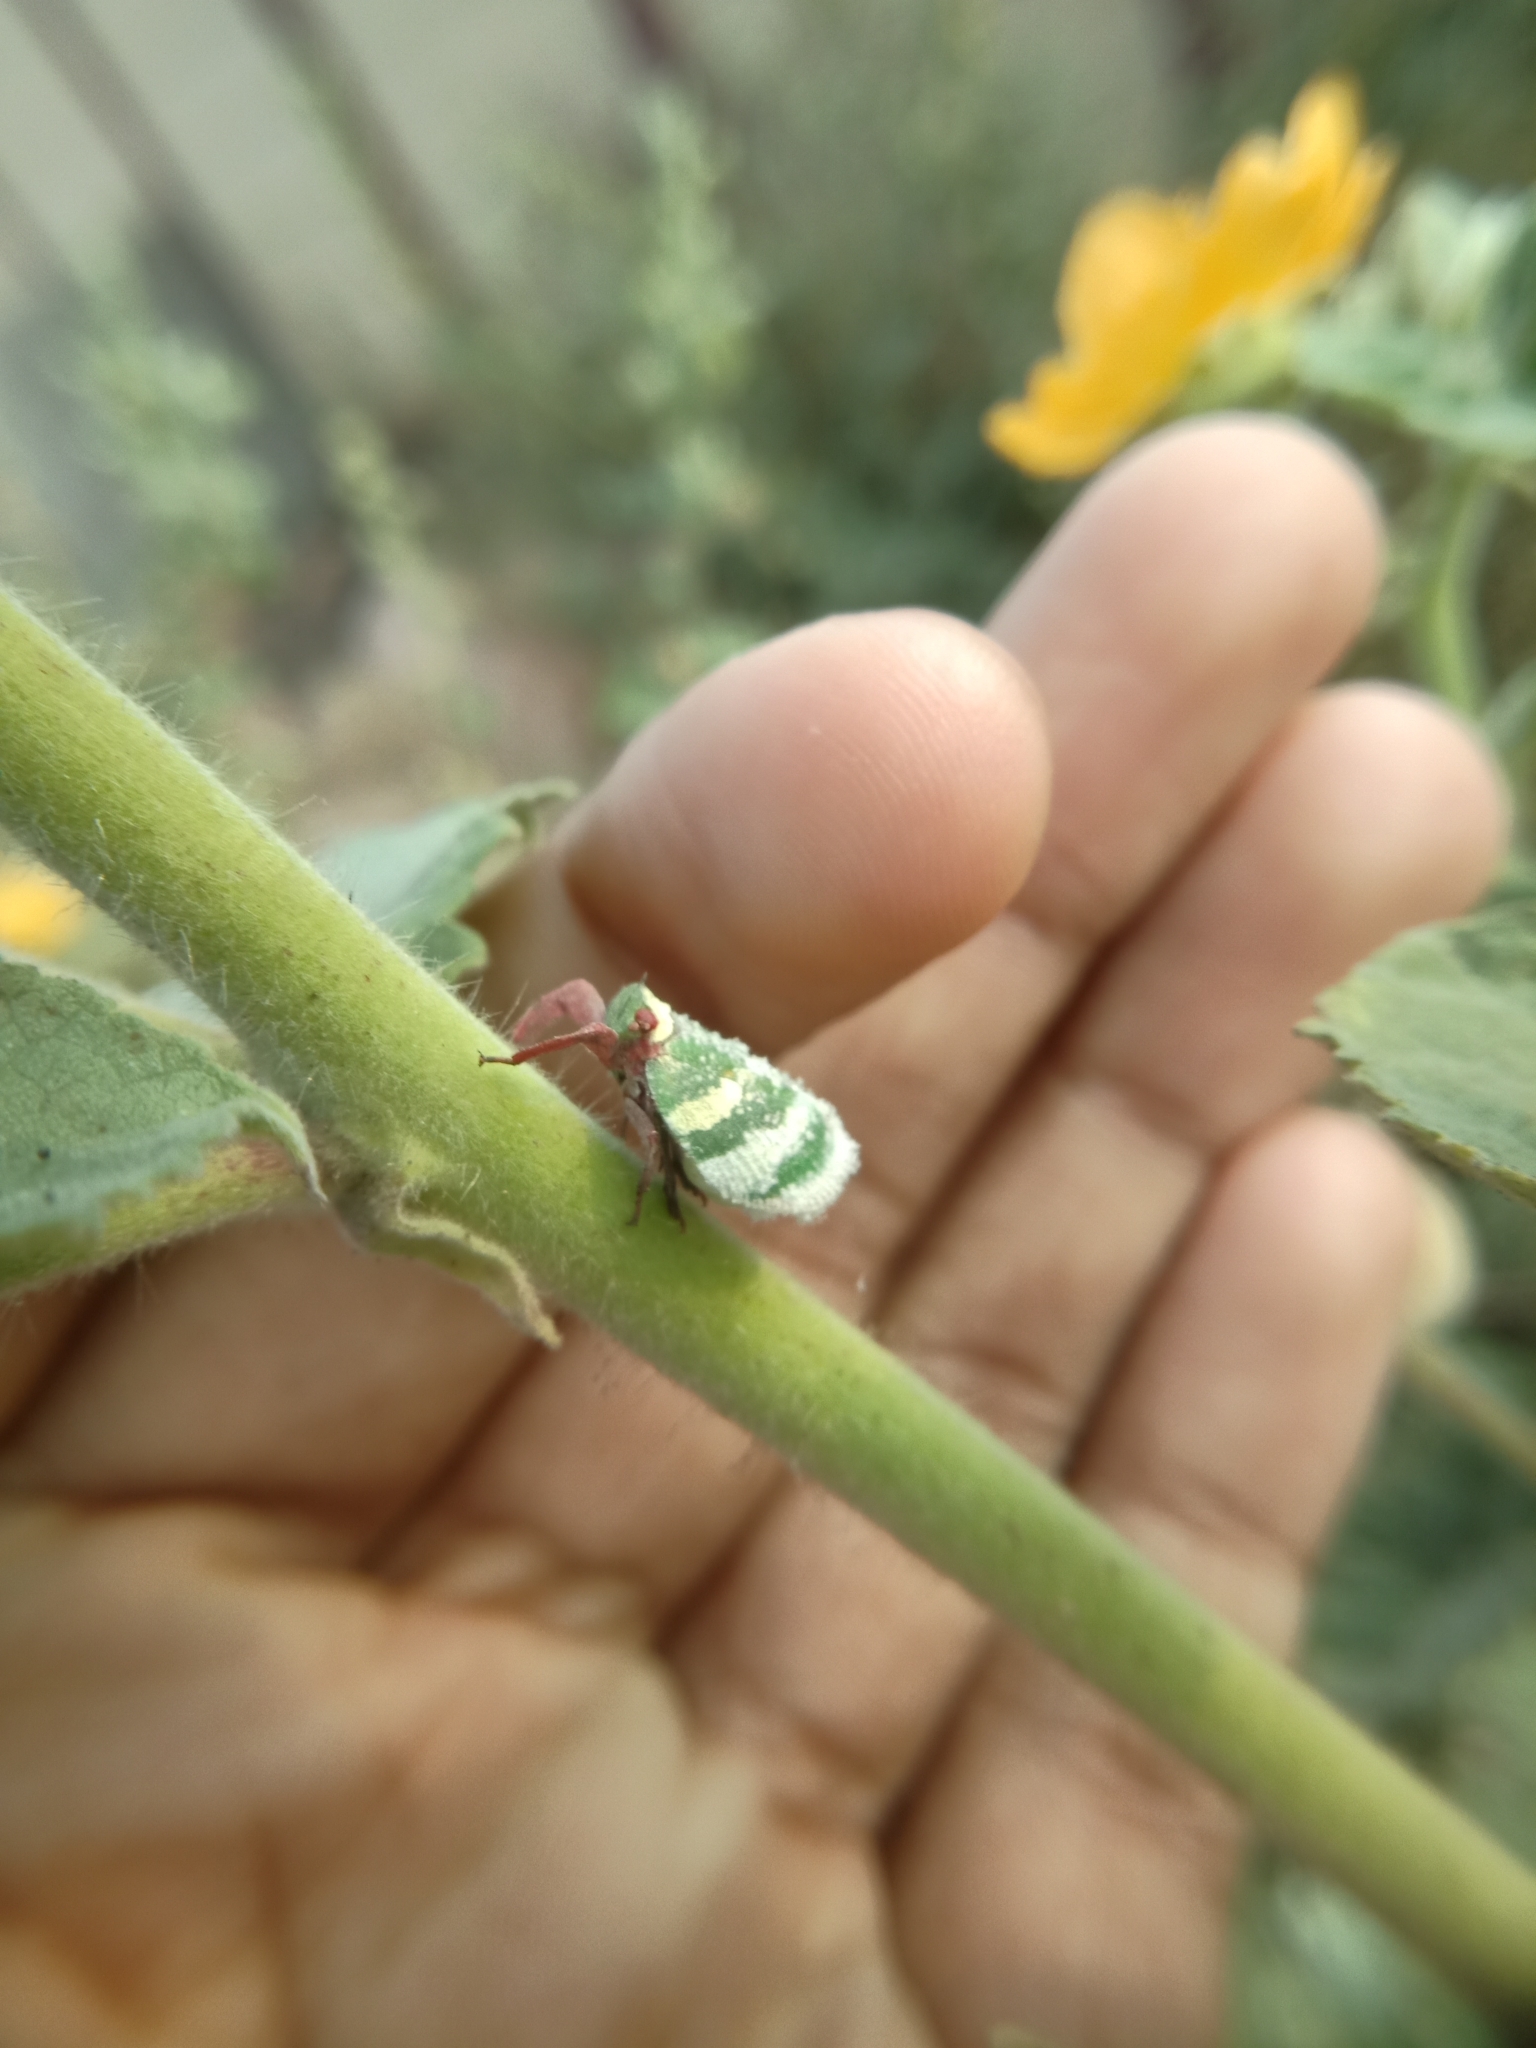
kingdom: Animalia
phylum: Arthropoda
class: Insecta
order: Hemiptera
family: Eurybrachidae
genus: Eurybrachys
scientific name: Eurybrachys tomentosa
